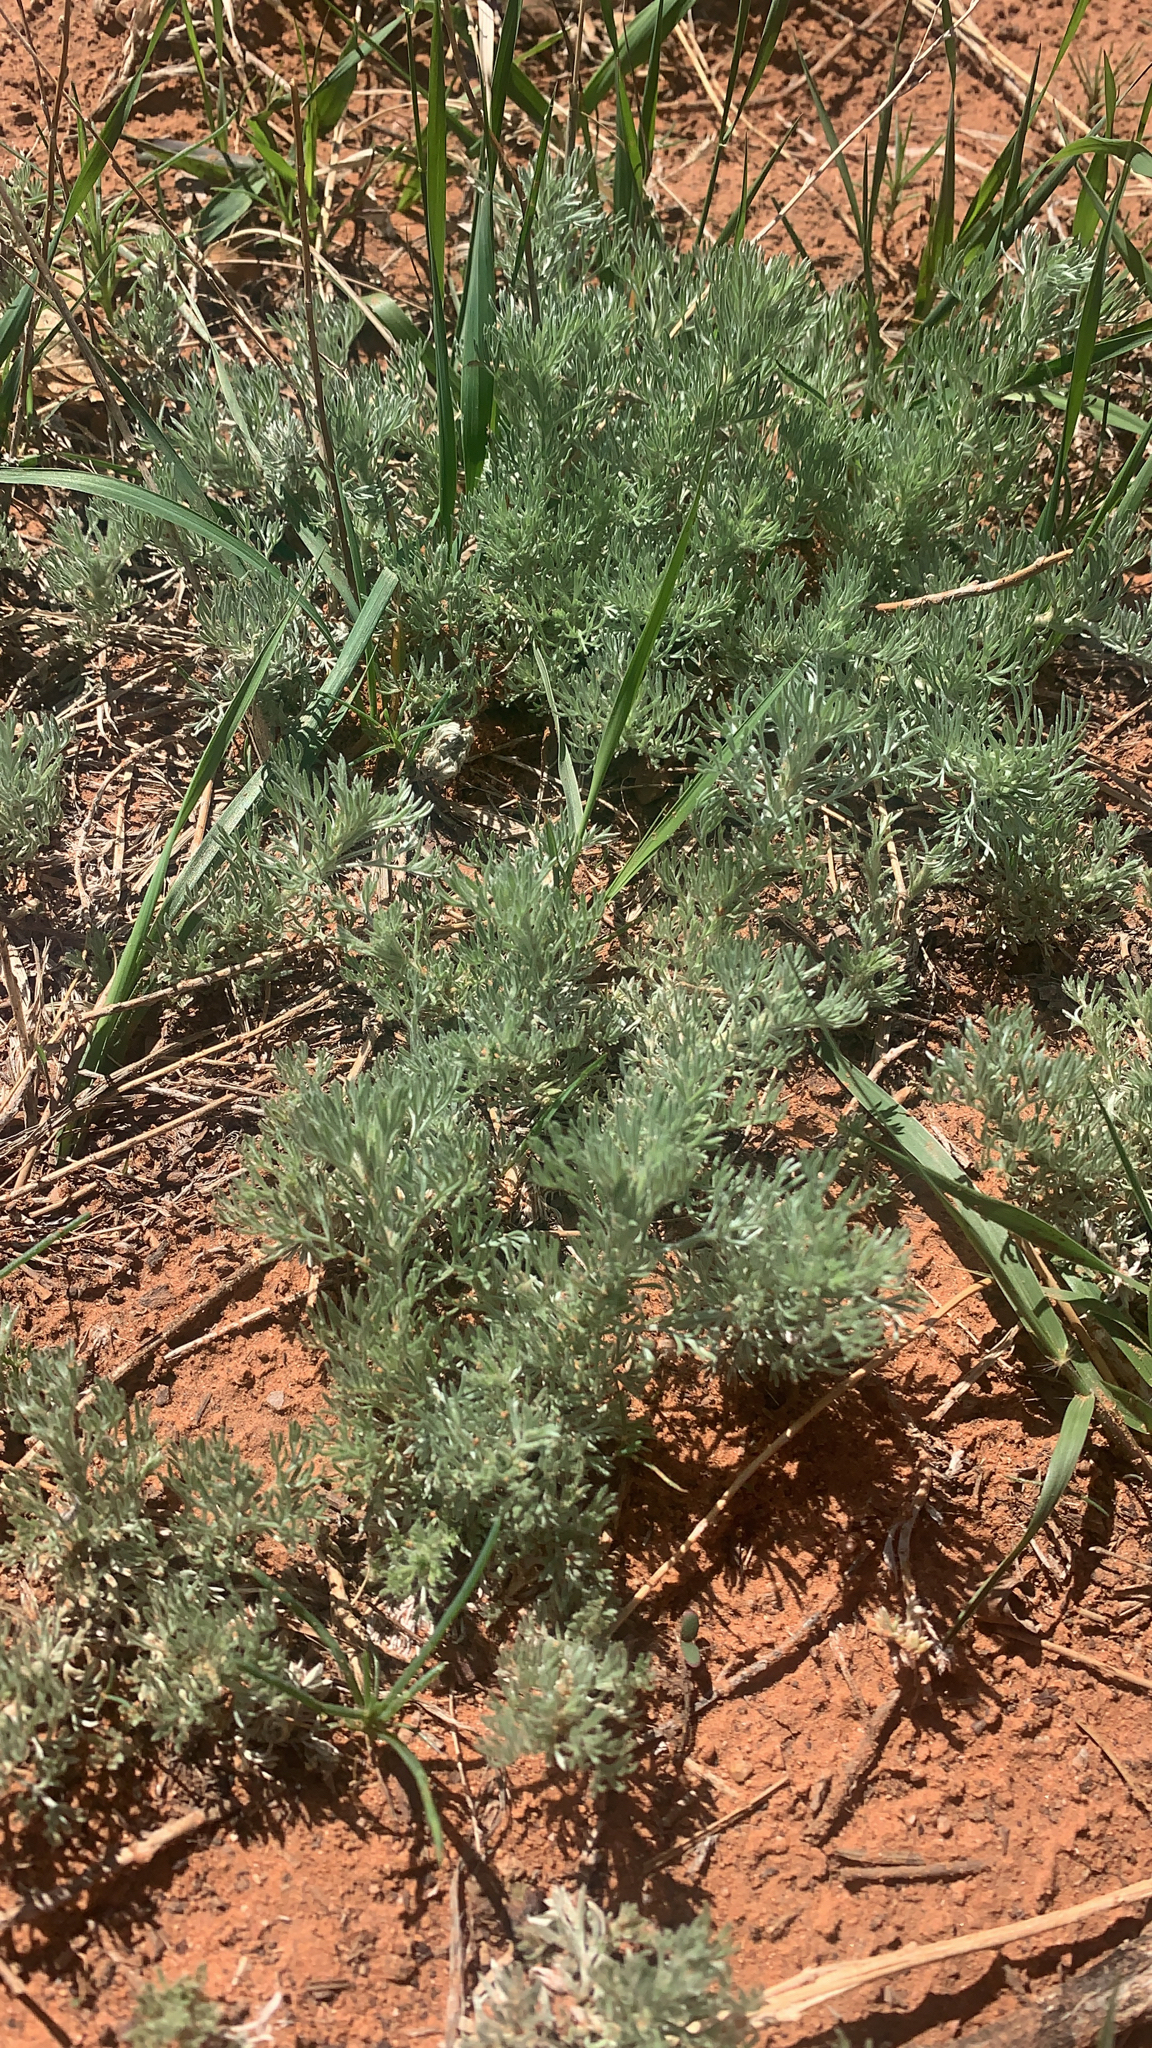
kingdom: Plantae
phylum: Tracheophyta
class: Magnoliopsida
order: Asterales
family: Asteraceae
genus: Artemisia
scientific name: Artemisia frigida
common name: Prairie sagewort
